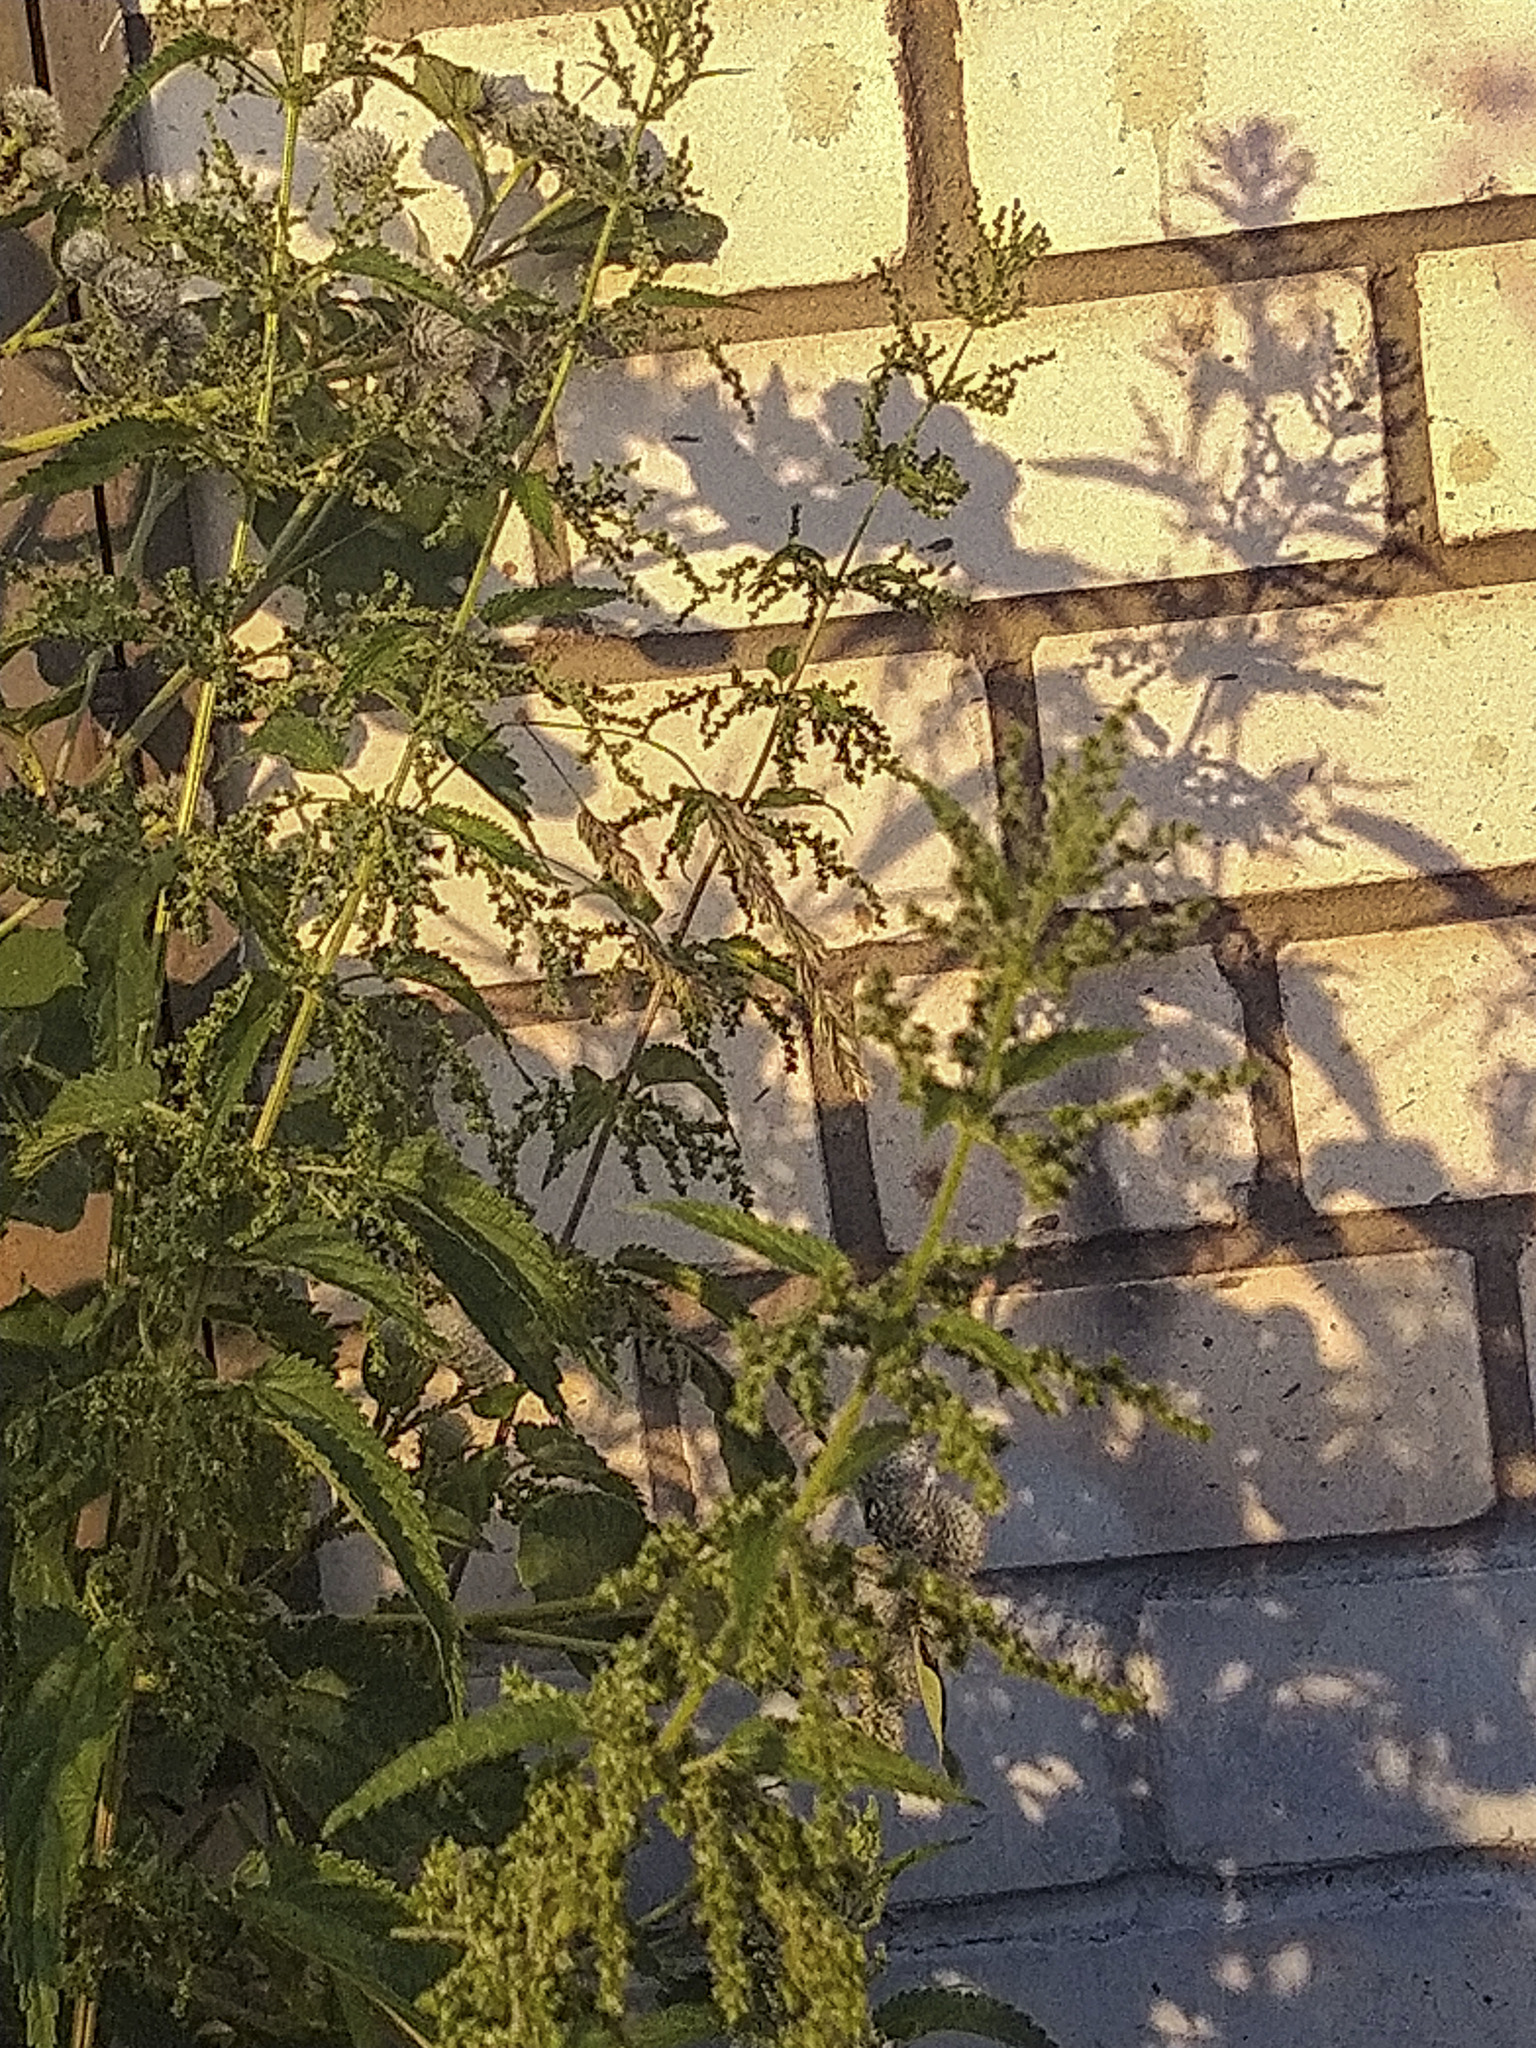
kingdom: Plantae
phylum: Tracheophyta
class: Magnoliopsida
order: Rosales
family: Urticaceae
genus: Urtica
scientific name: Urtica dioica
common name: Common nettle
